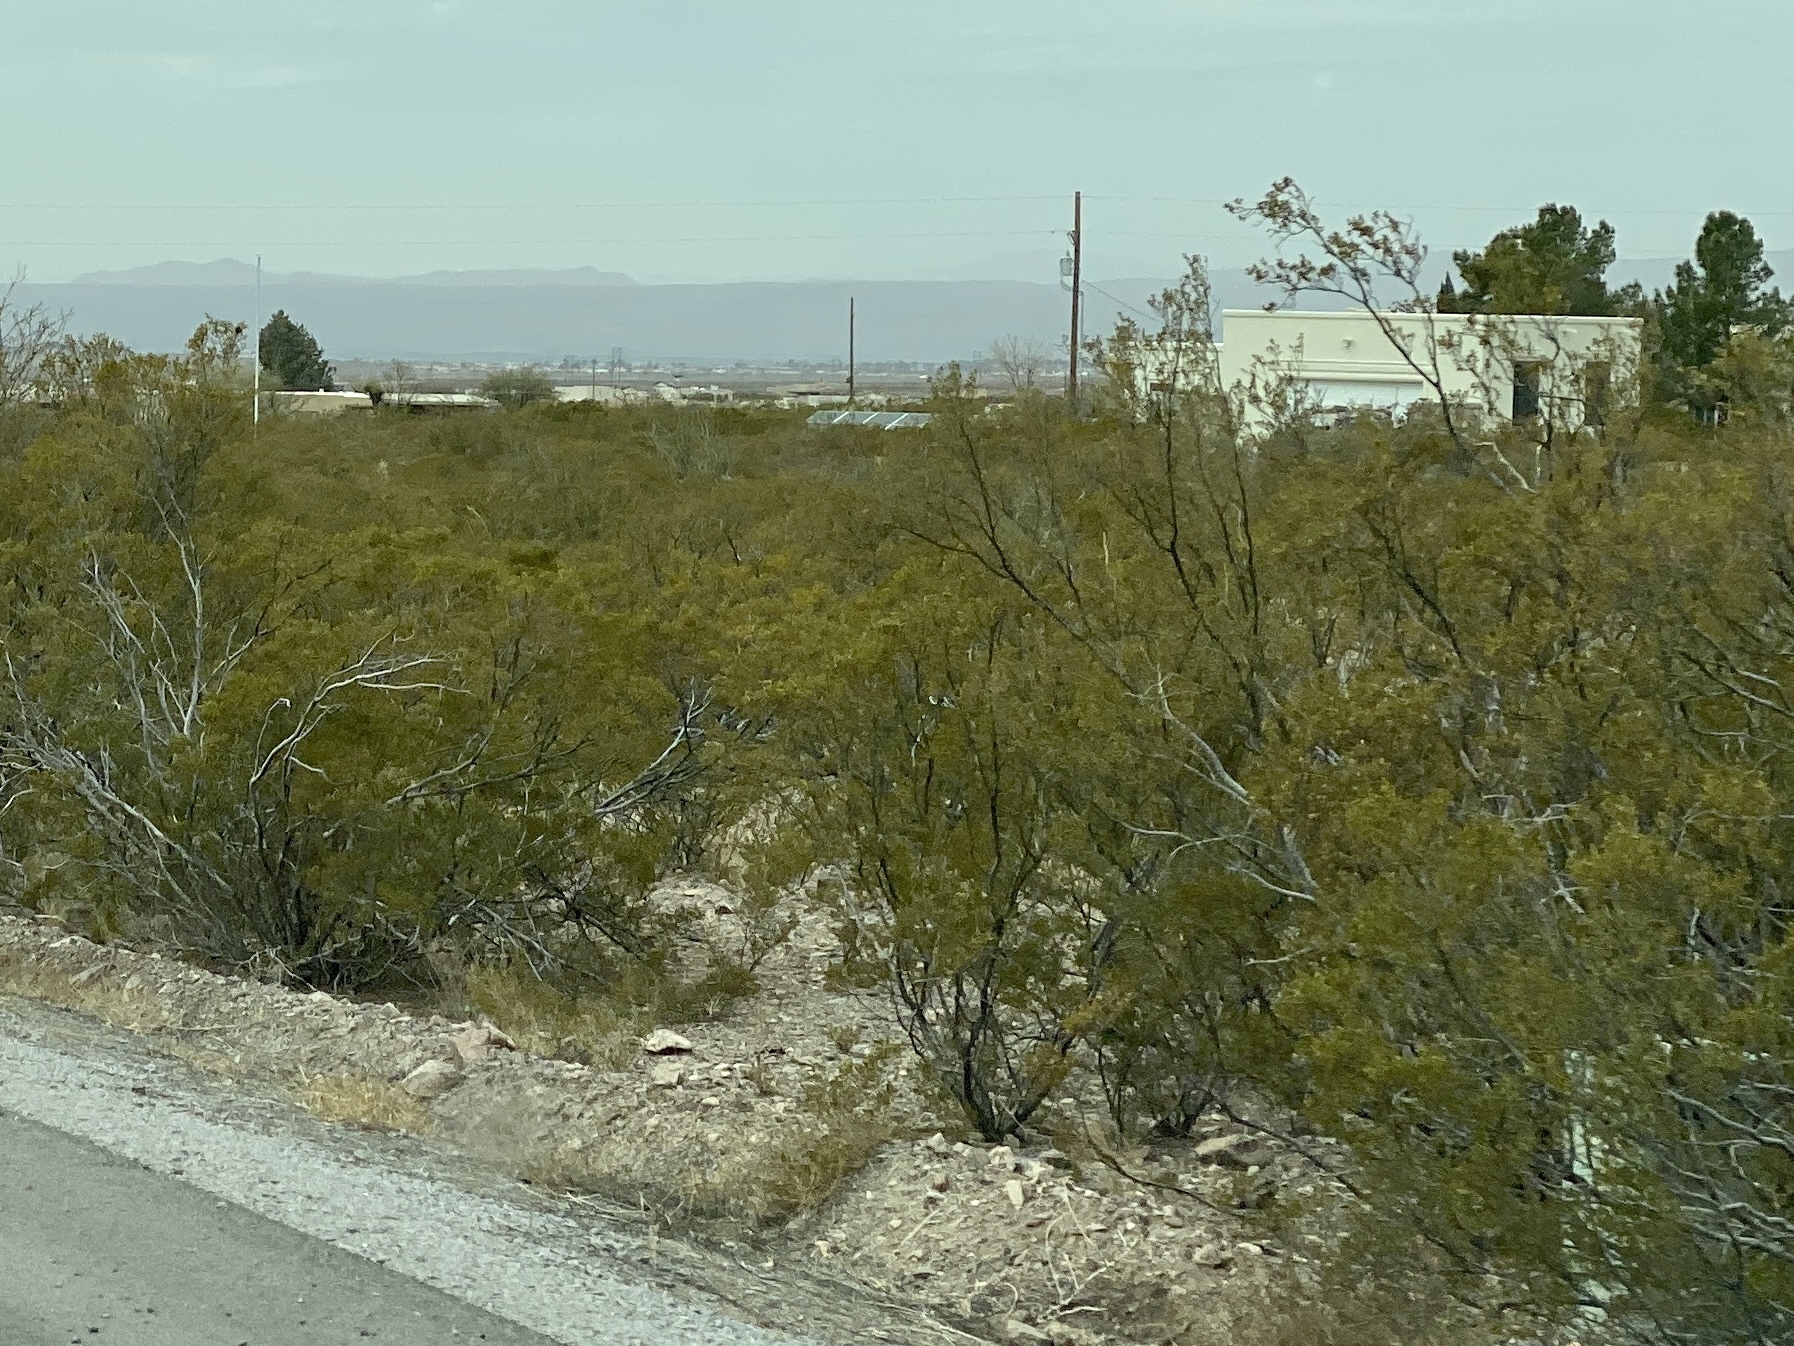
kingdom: Plantae
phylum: Tracheophyta
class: Magnoliopsida
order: Zygophyllales
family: Zygophyllaceae
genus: Larrea
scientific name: Larrea tridentata
